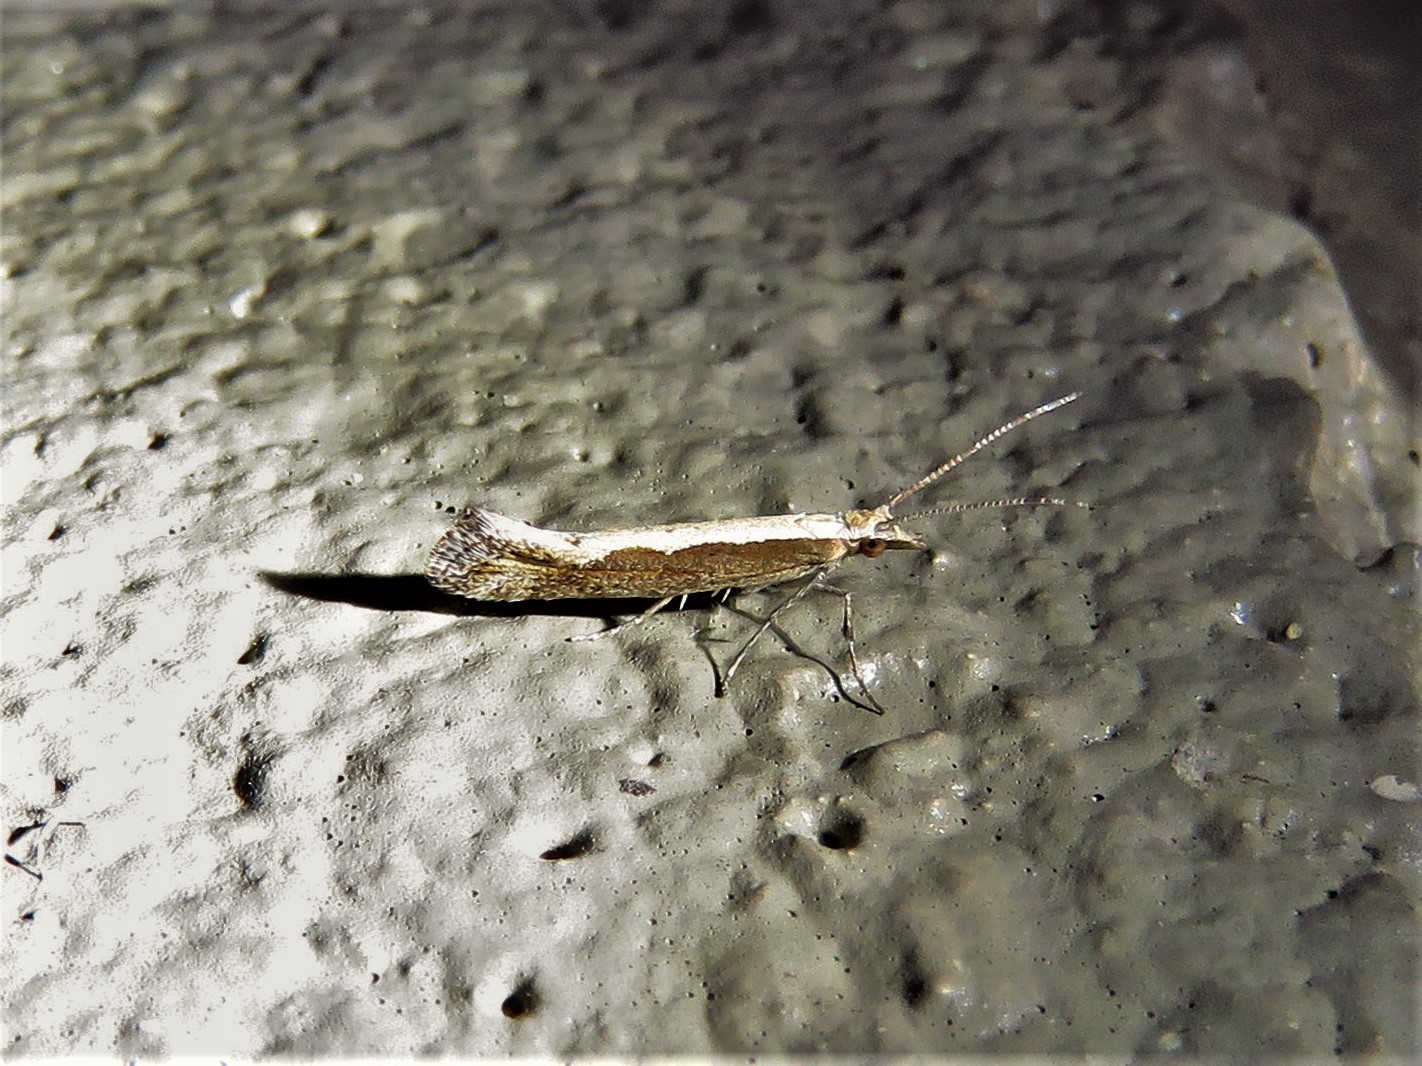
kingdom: Animalia
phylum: Arthropoda
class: Insecta
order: Lepidoptera
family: Plutellidae
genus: Plutella
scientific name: Plutella xylostella
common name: Diamond-back moth
